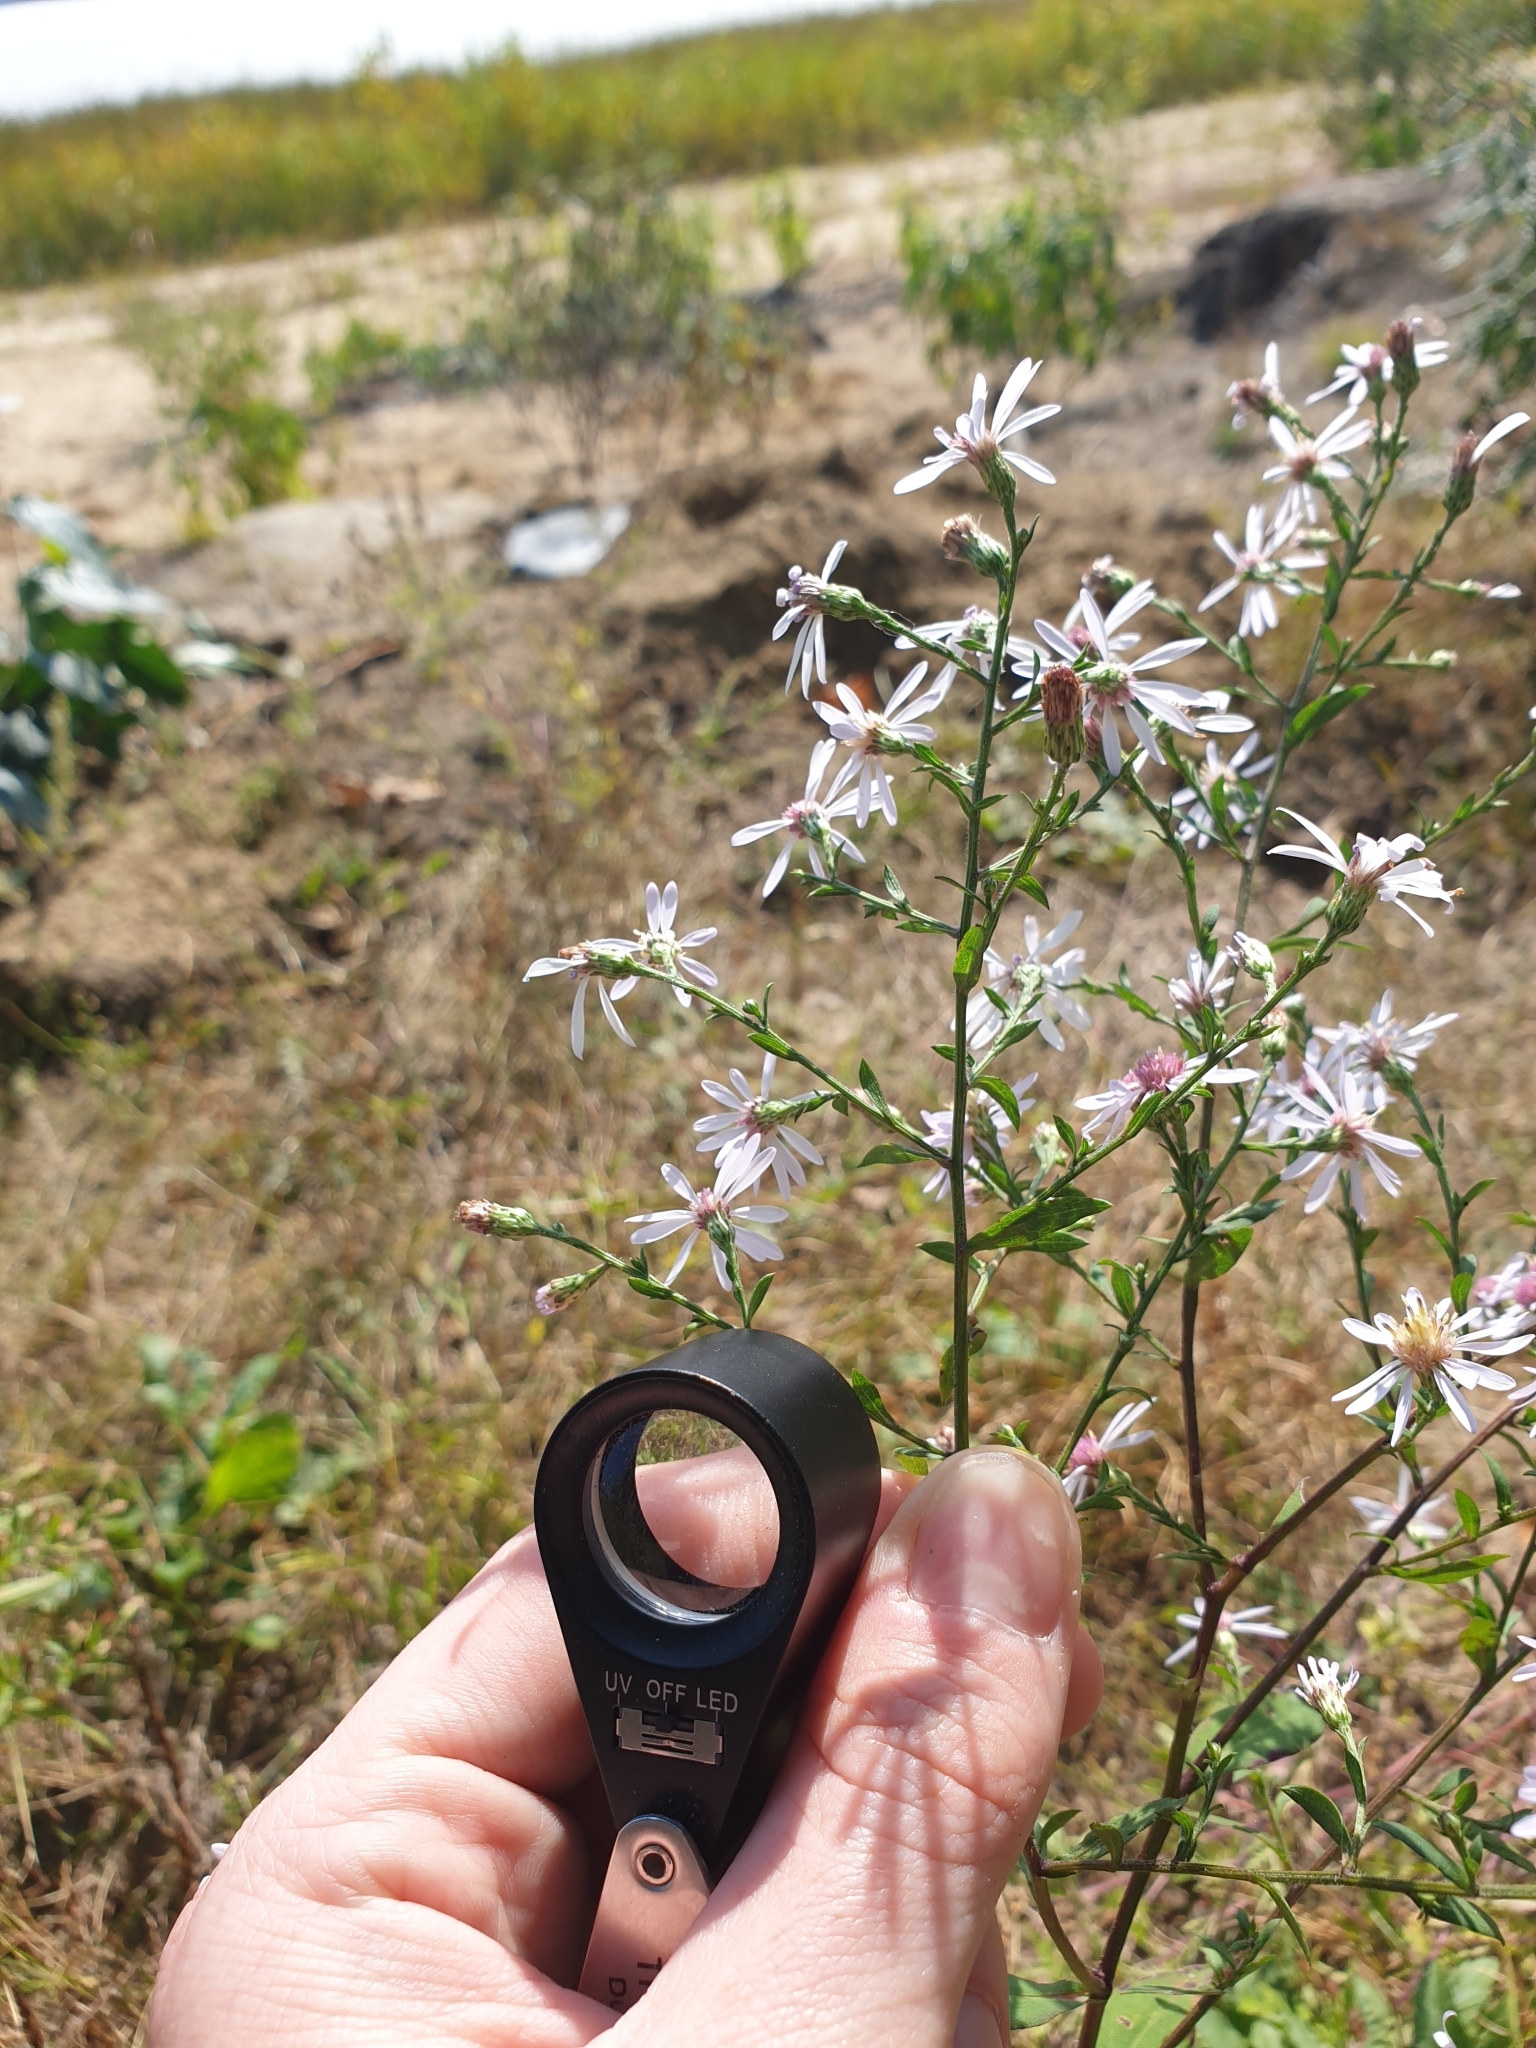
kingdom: Plantae
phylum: Tracheophyta
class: Magnoliopsida
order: Asterales
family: Asteraceae
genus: Symphyotrichum
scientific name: Symphyotrichum cordifolium
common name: Beeweed
